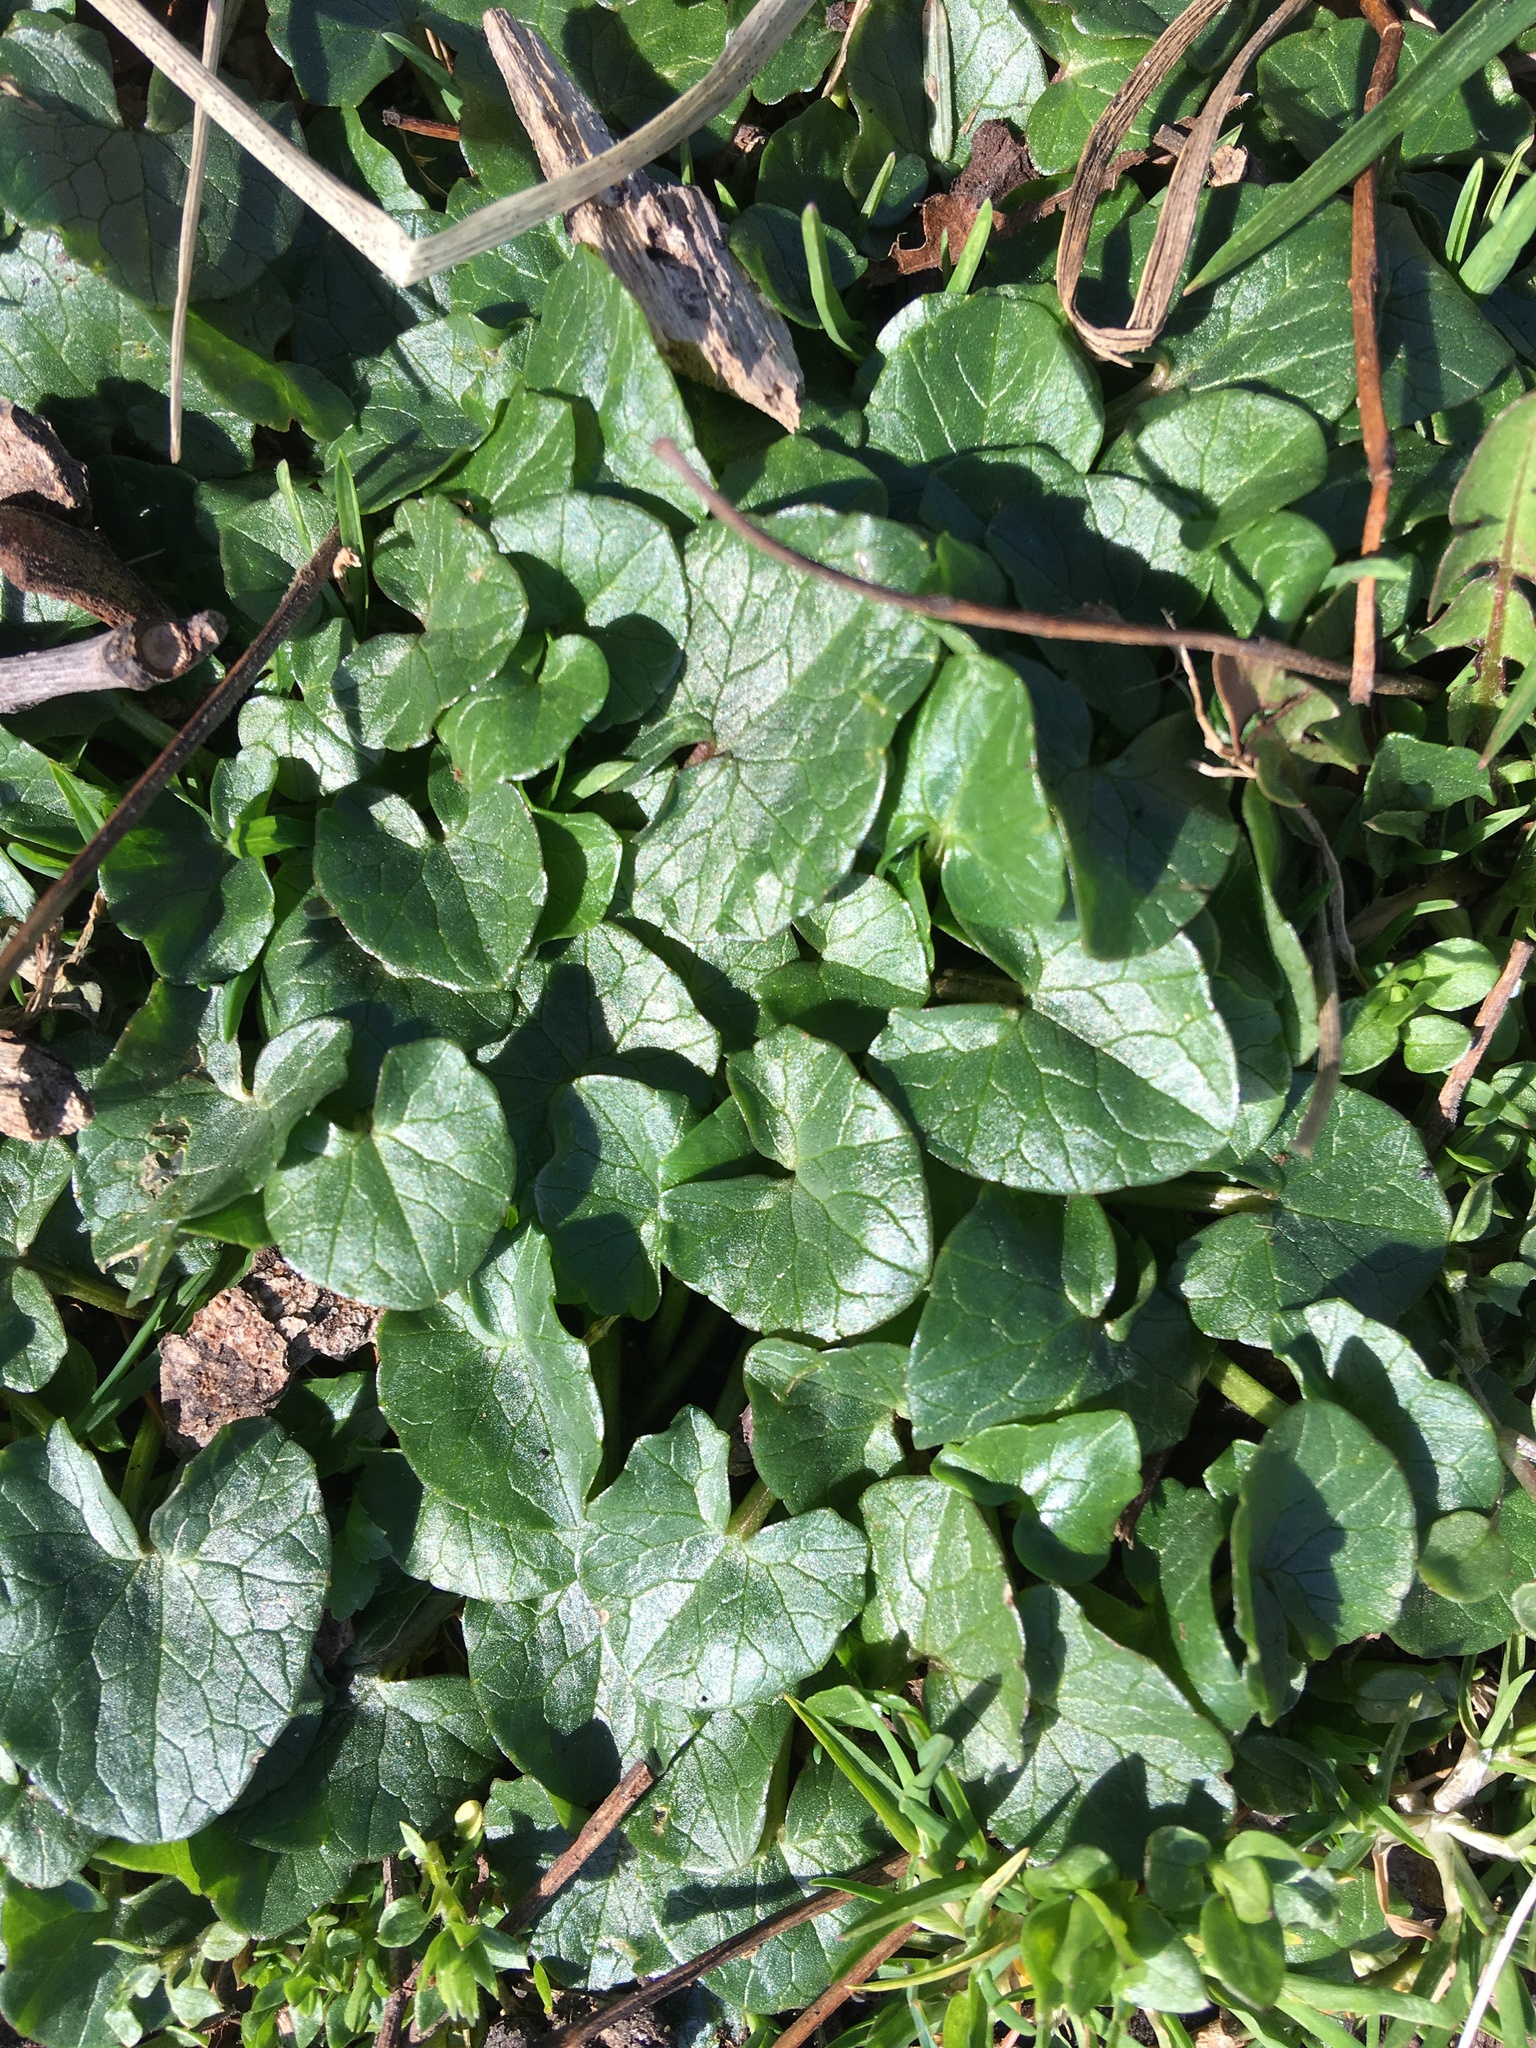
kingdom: Plantae
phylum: Tracheophyta
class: Magnoliopsida
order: Ranunculales
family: Ranunculaceae
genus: Ficaria
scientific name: Ficaria verna
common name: Lesser celandine
